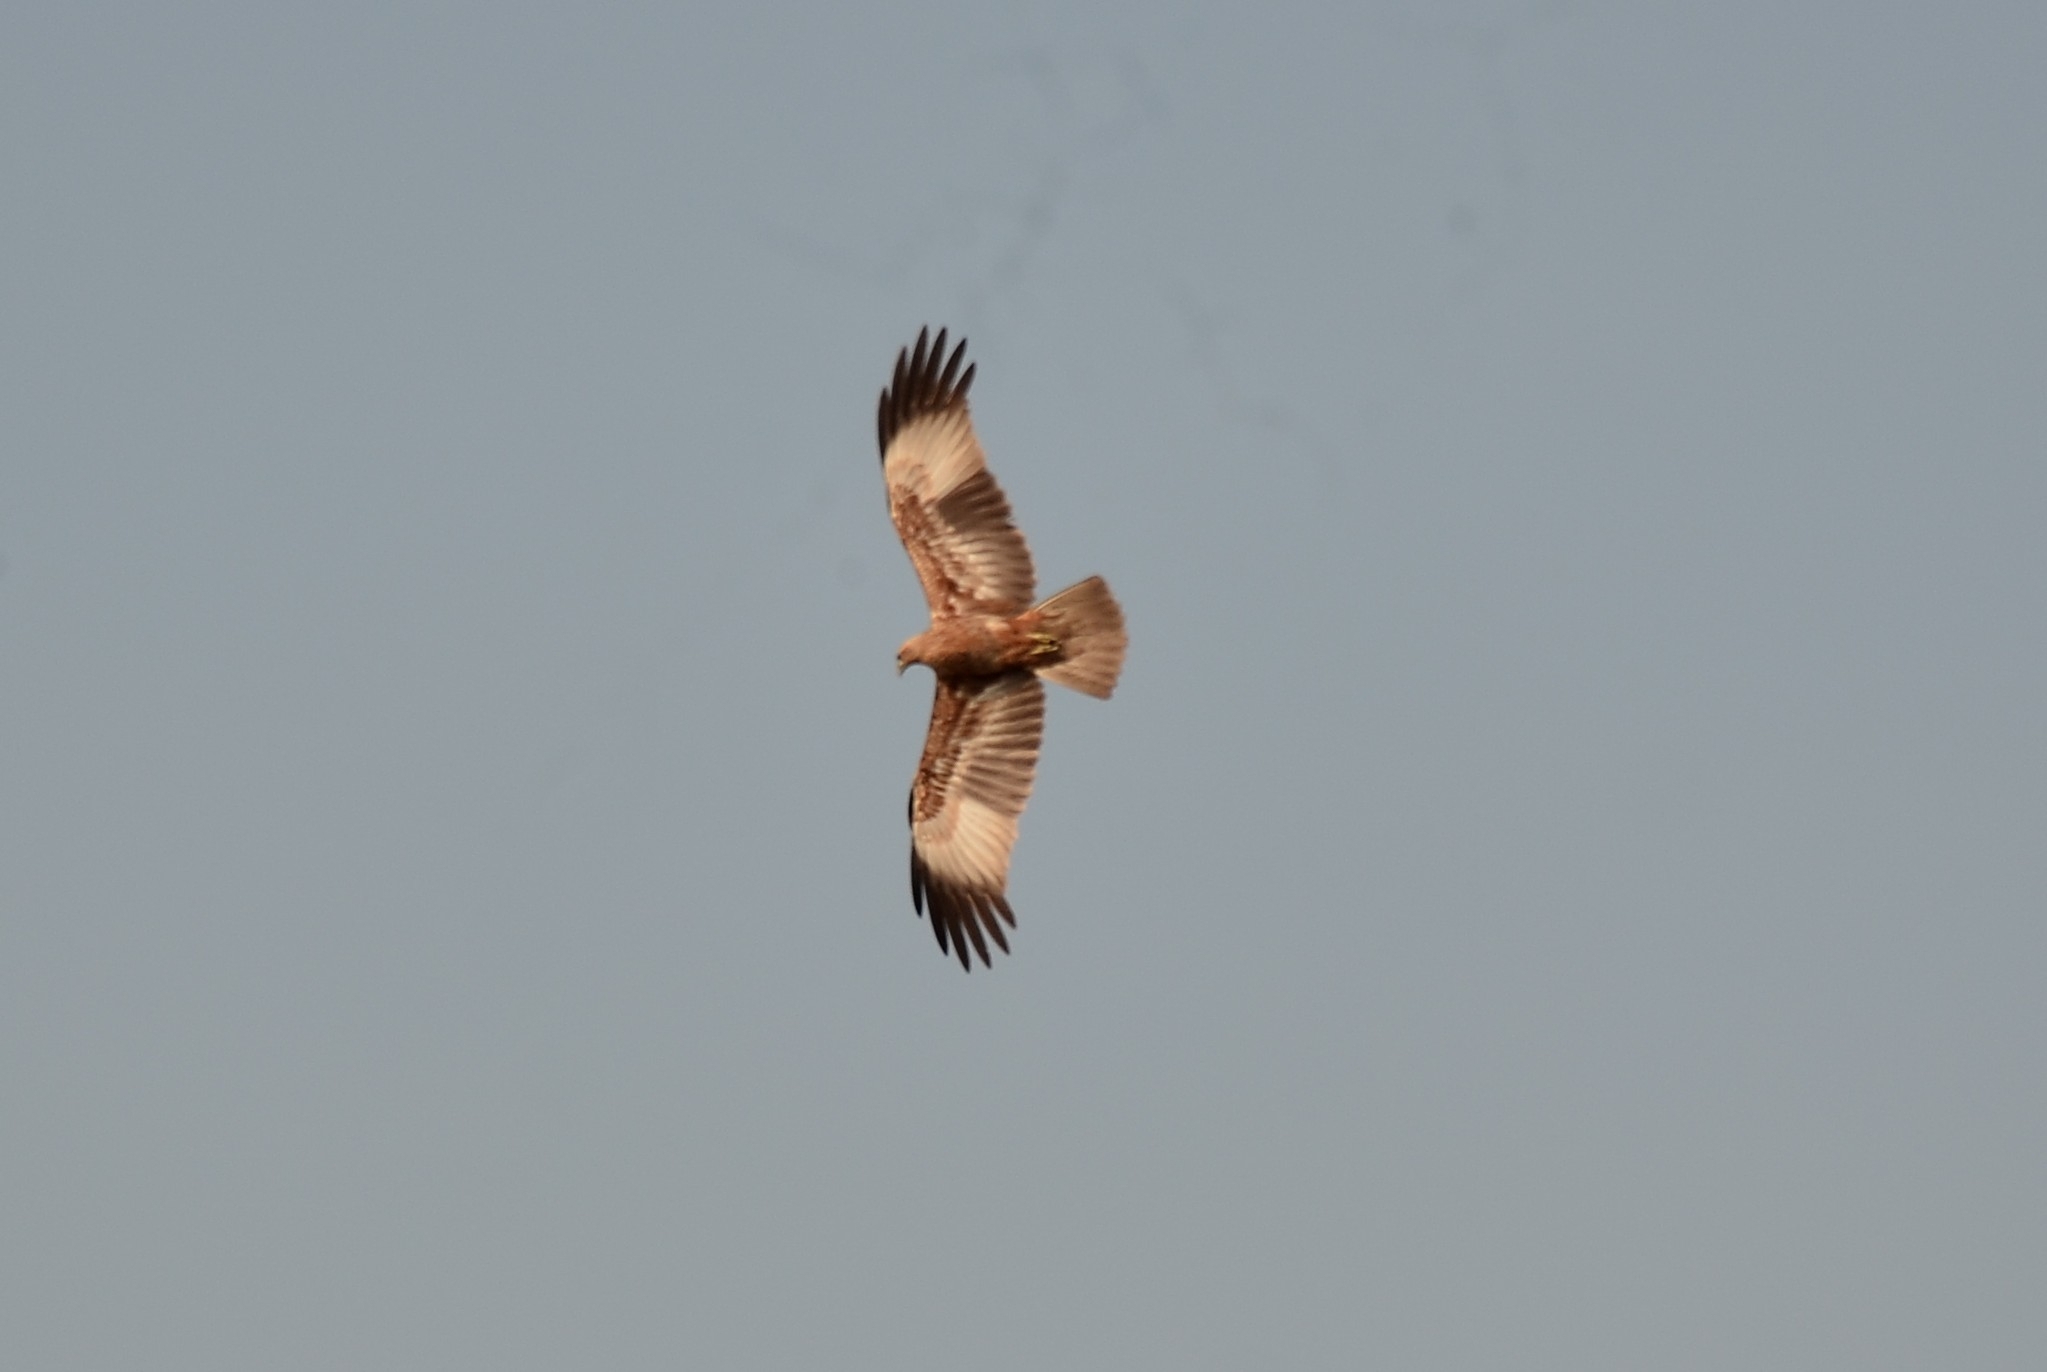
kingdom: Animalia
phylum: Chordata
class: Aves
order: Accipitriformes
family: Accipitridae
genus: Haliastur
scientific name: Haliastur indus
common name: Brahminy kite
